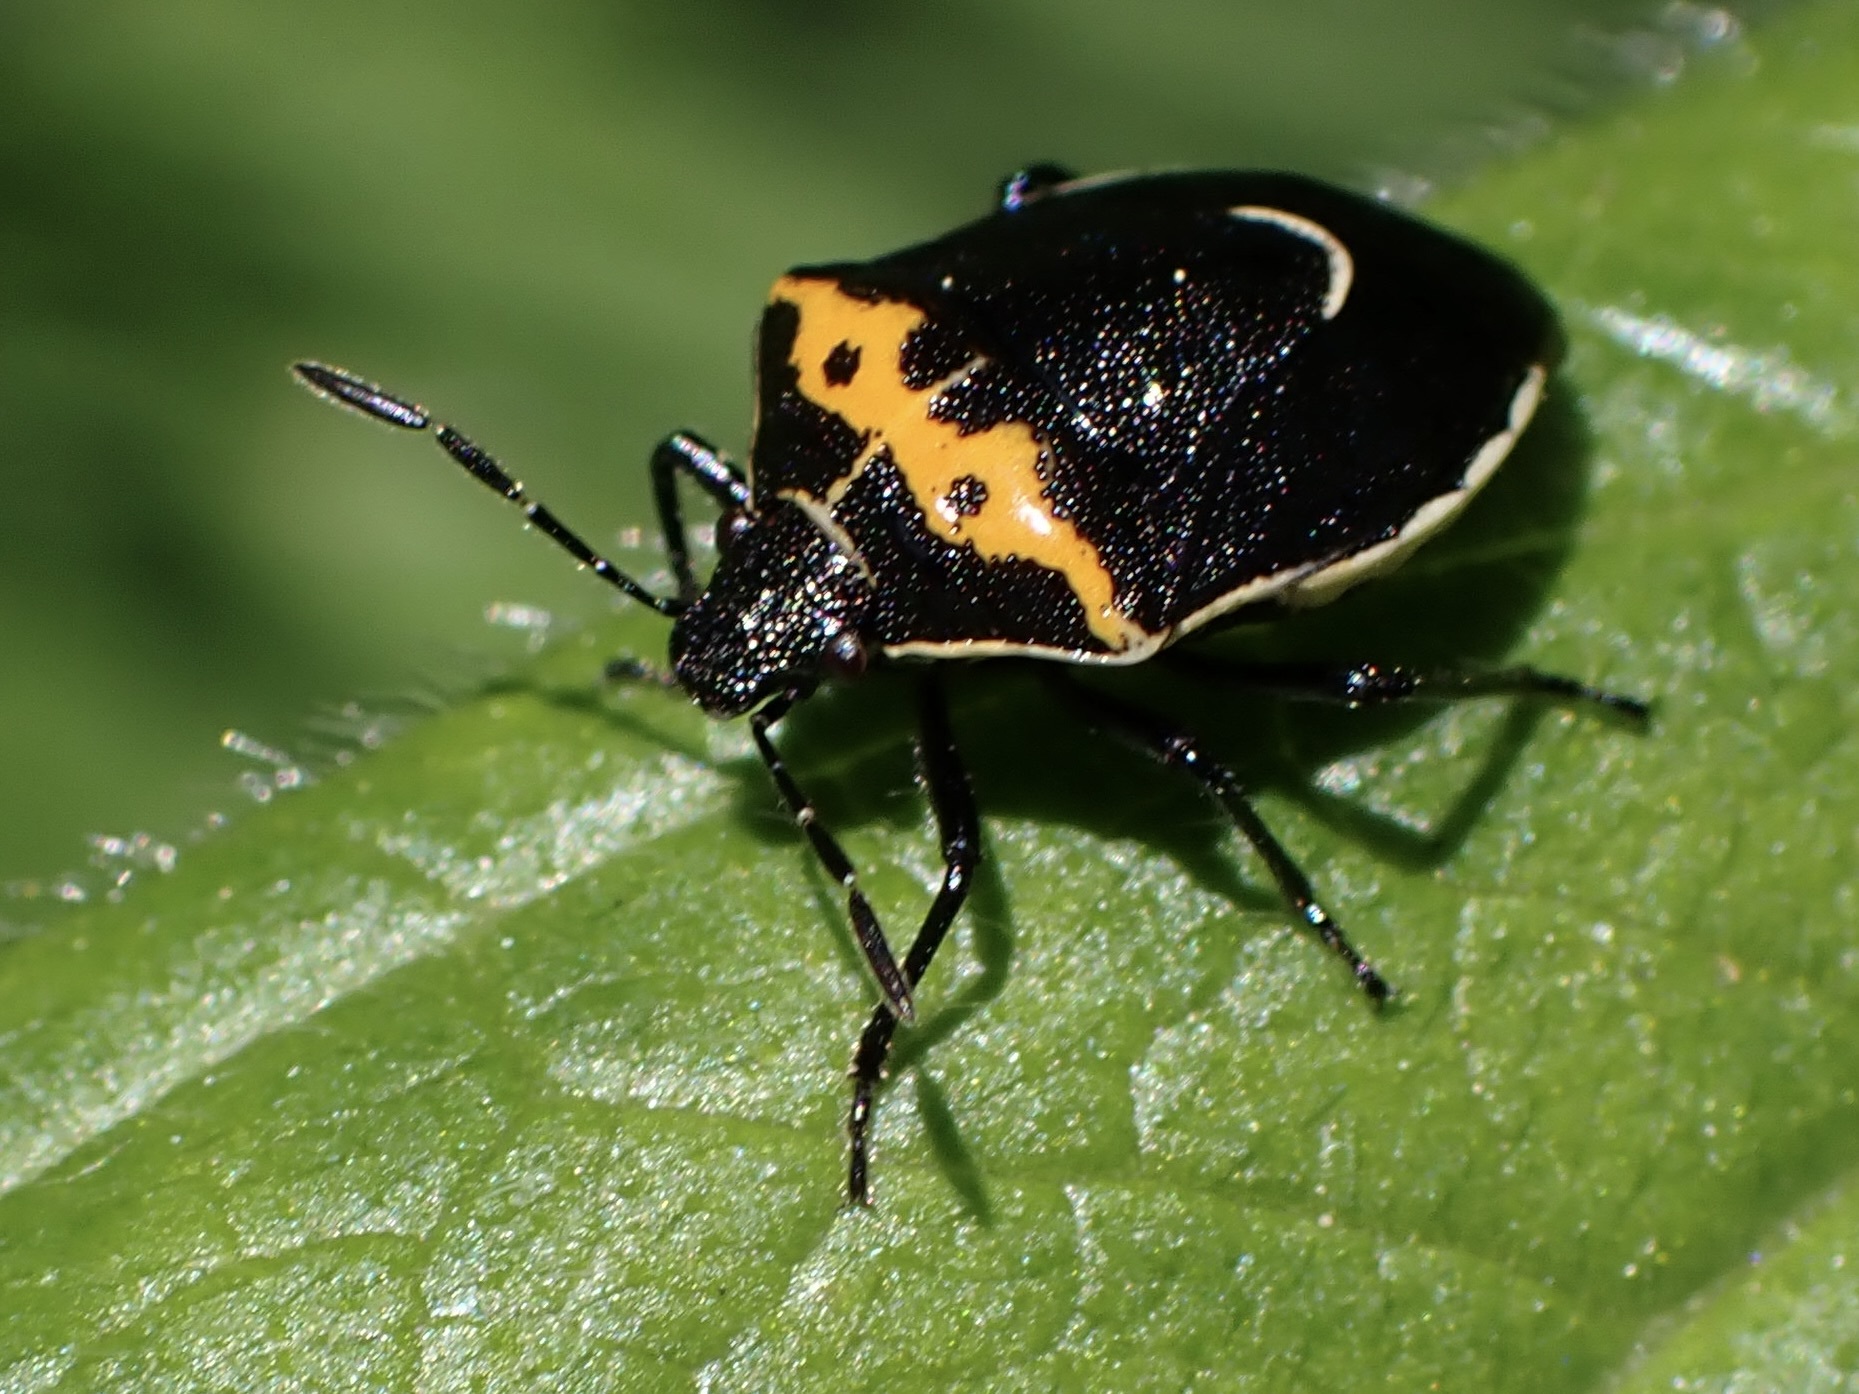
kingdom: Animalia
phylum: Arthropoda
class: Insecta
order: Hemiptera
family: Pentatomidae
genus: Cosmopepla
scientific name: Cosmopepla conspicillaris
